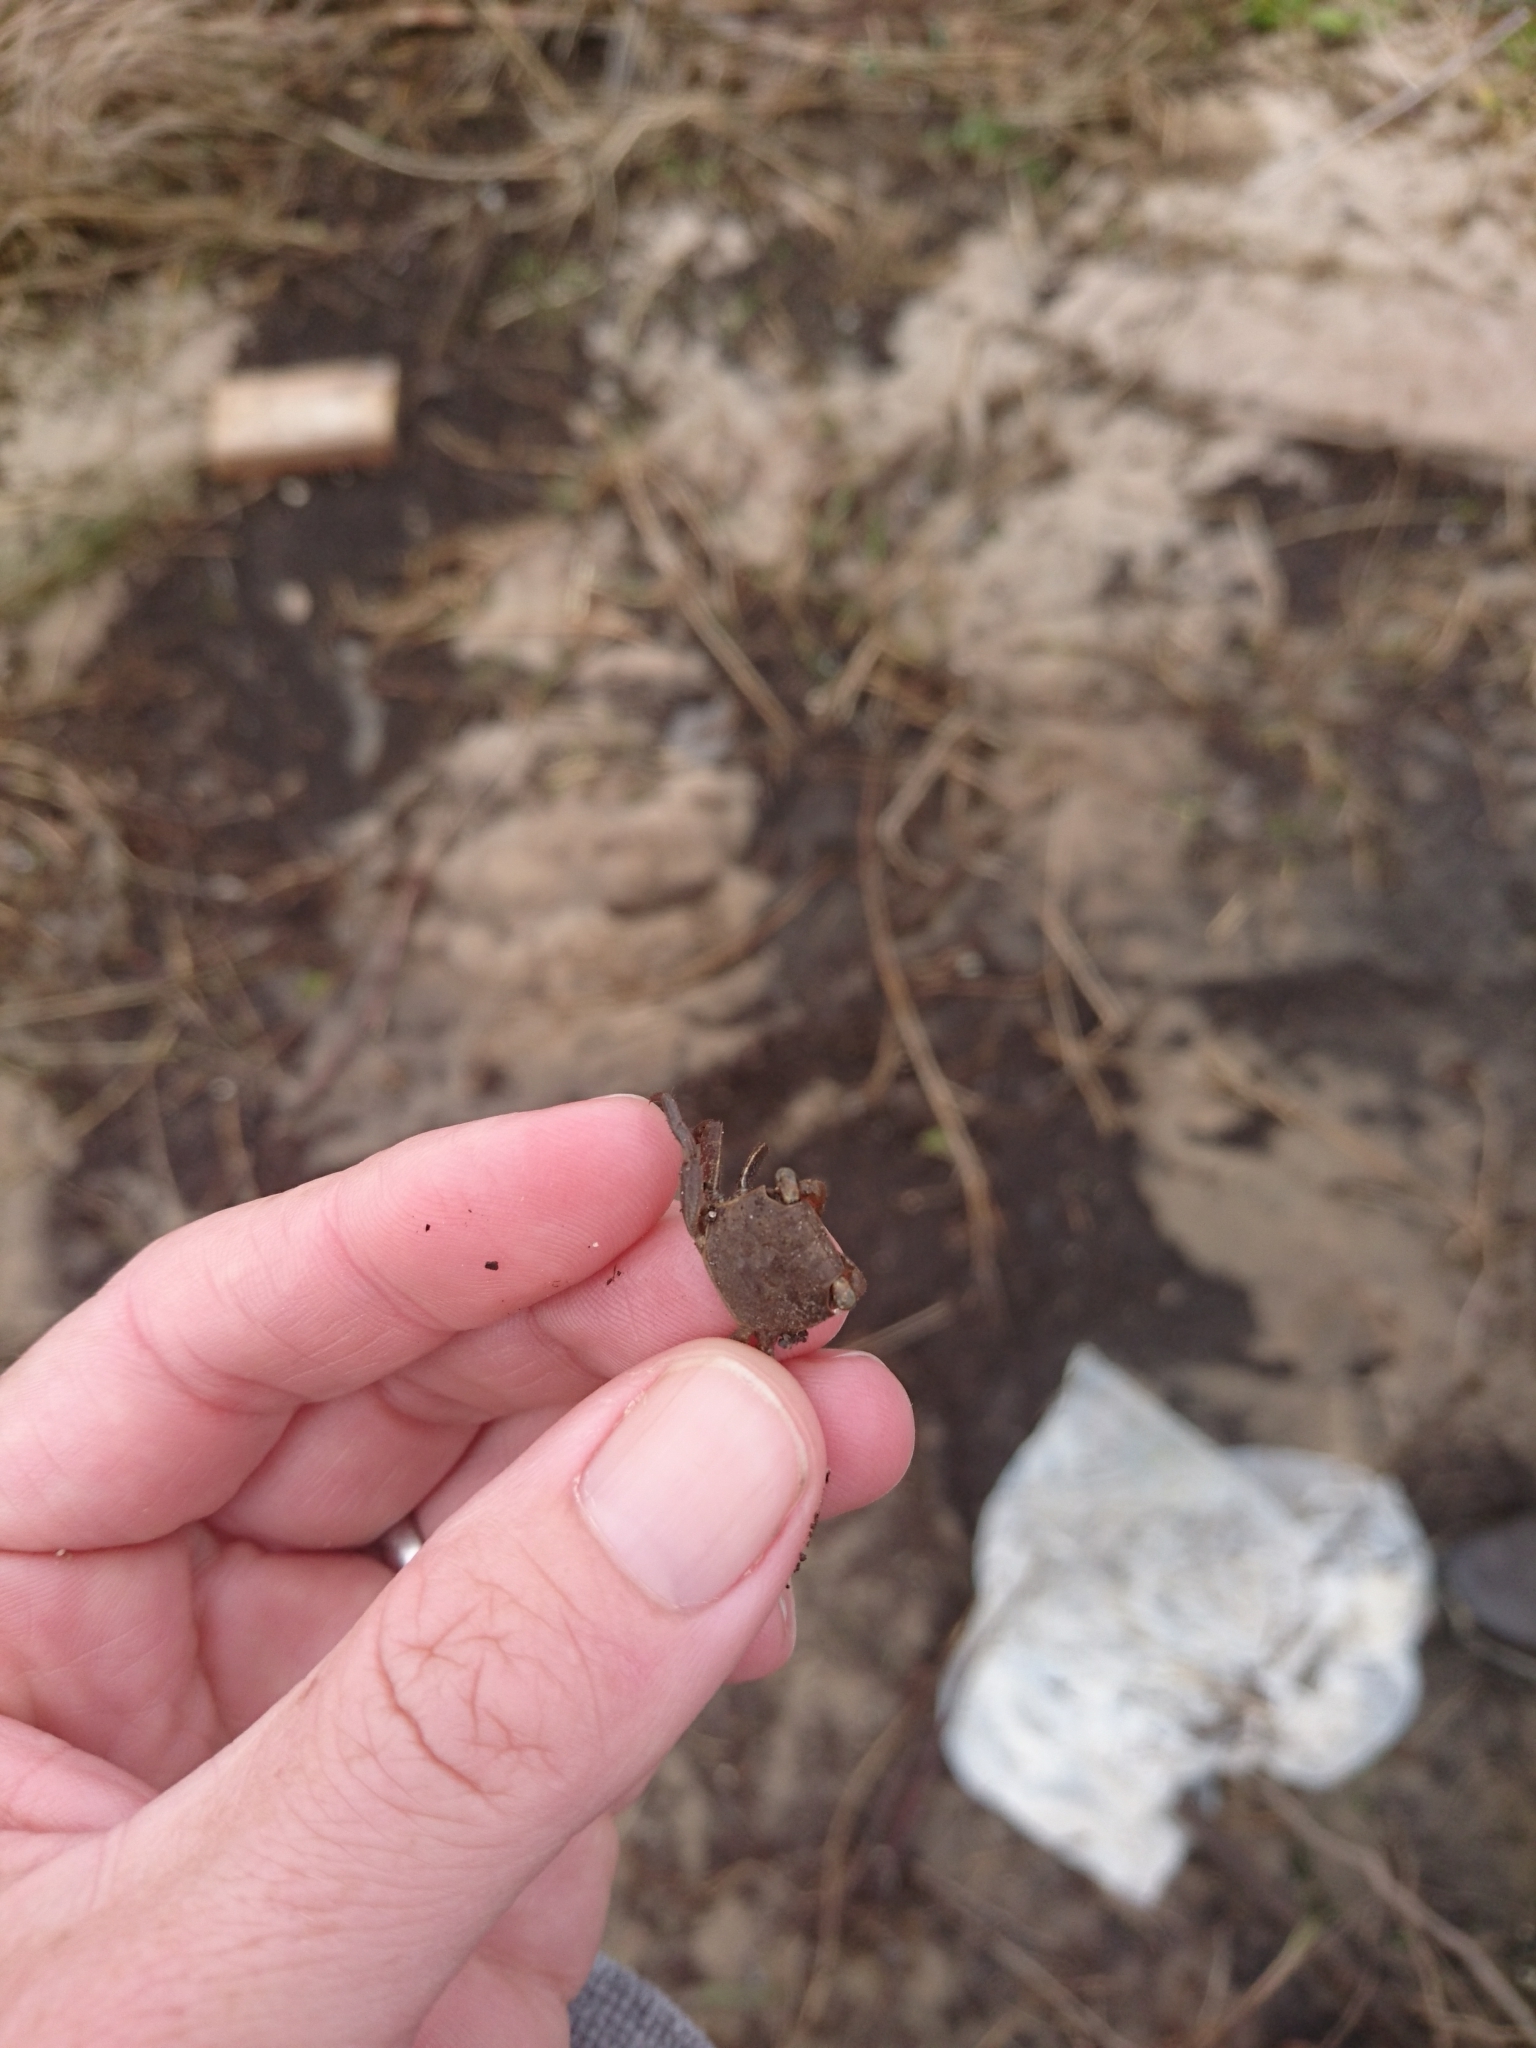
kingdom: Animalia
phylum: Arthropoda
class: Malacostraca
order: Decapoda
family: Sesarmidae
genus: Armases
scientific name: Armases cinereum
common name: Squareback marsh crab
